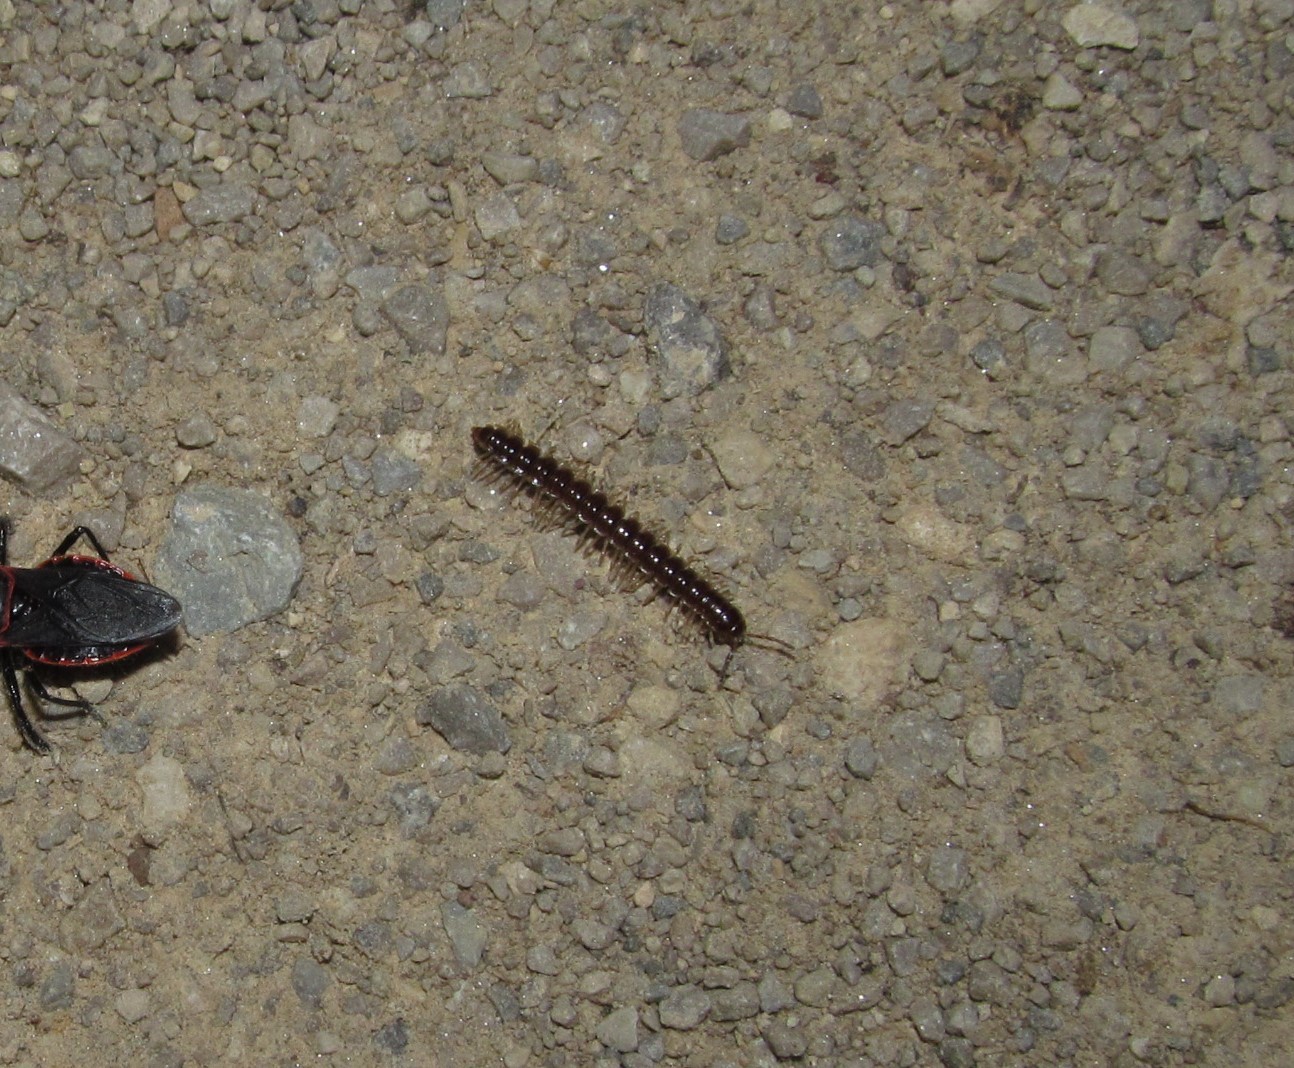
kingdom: Animalia
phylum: Arthropoda
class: Diplopoda
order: Polydesmida
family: Paradoxosomatidae
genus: Oxidus
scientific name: Oxidus gracilis
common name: Greenhouse millipede
